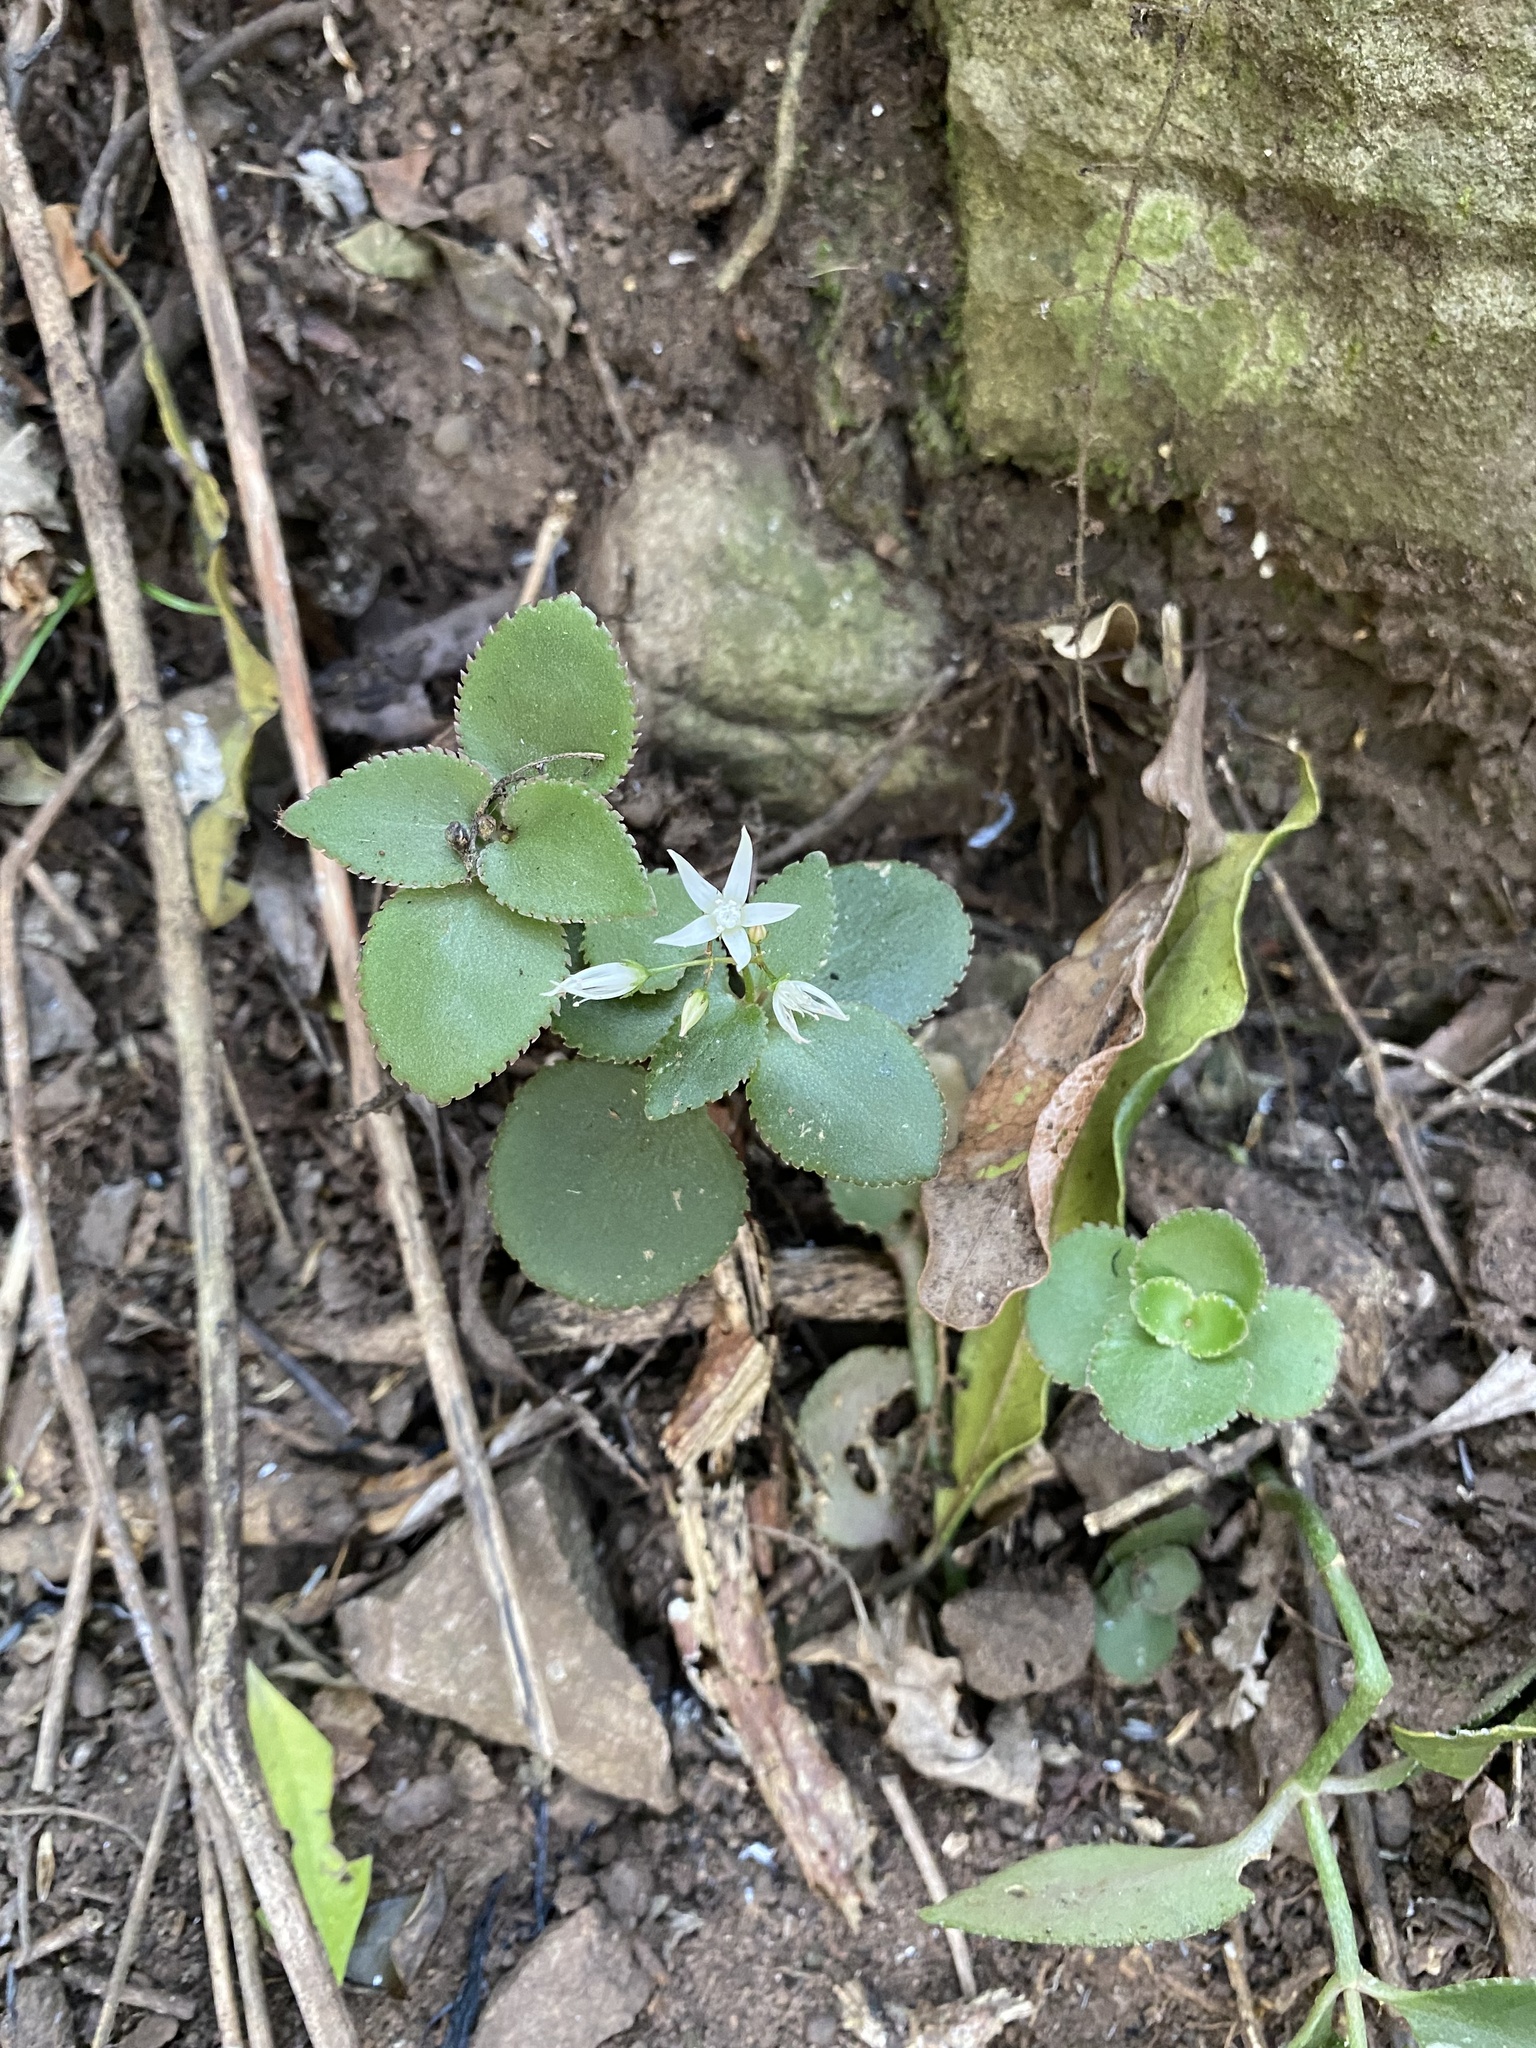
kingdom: Plantae
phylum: Tracheophyta
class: Magnoliopsida
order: Saxifragales
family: Crassulaceae
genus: Crassula
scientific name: Crassula sarmentosa
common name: Jade-tree
